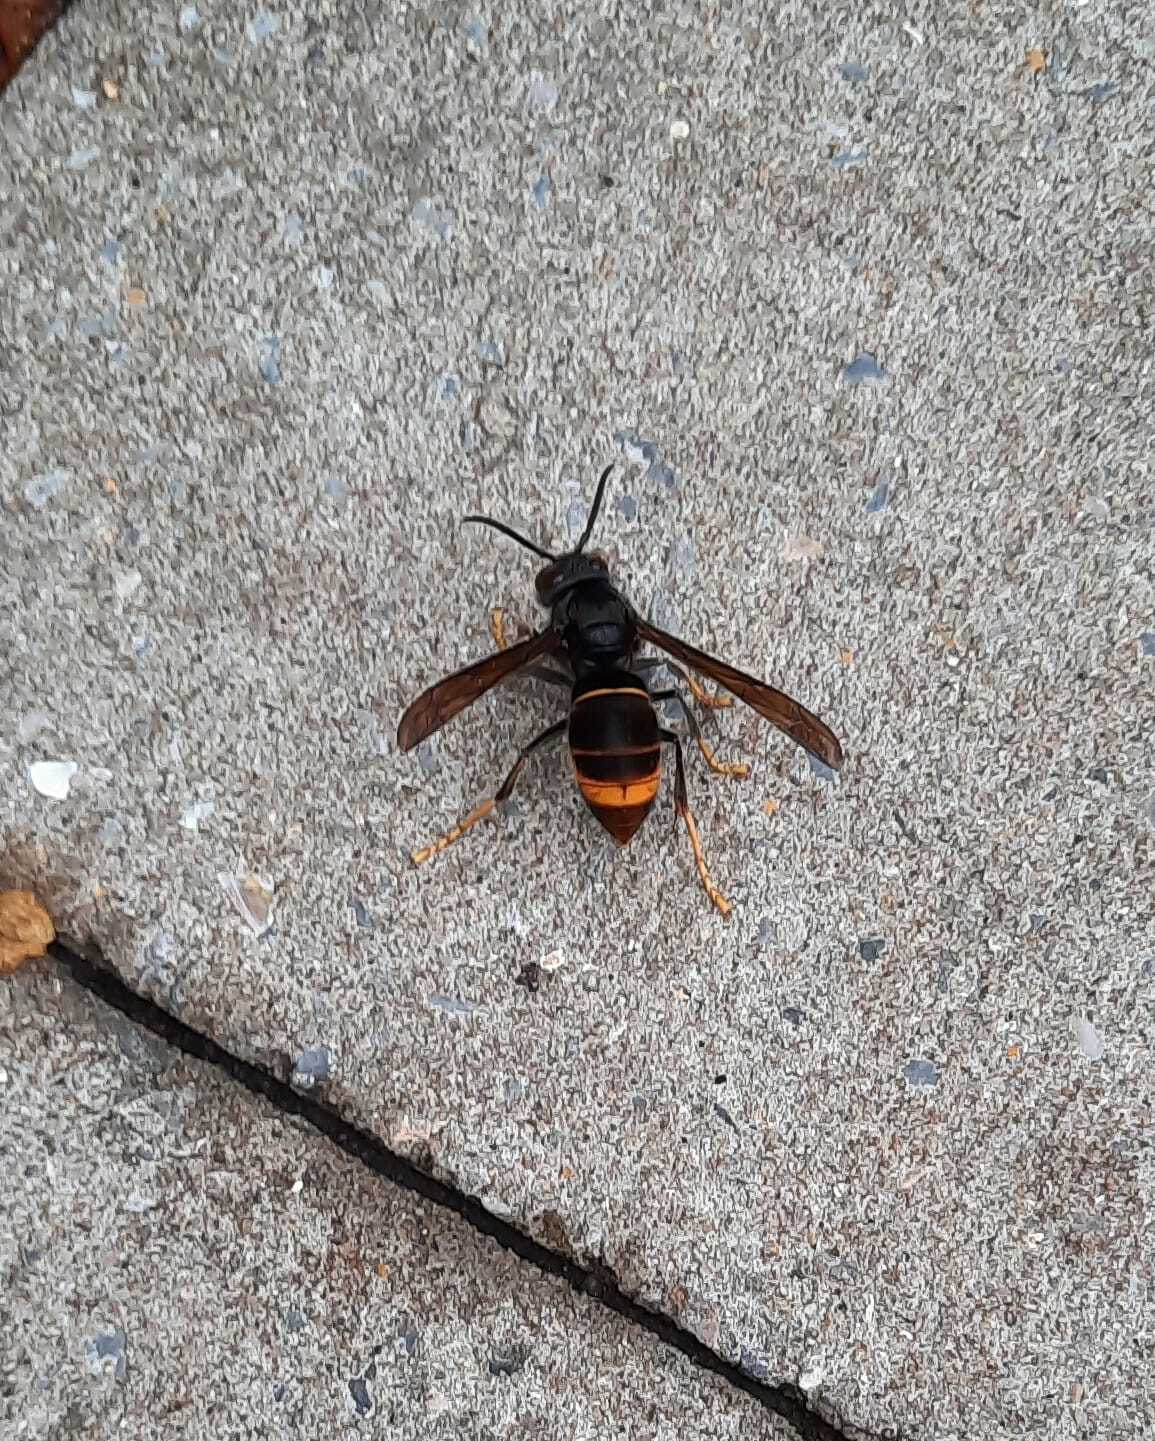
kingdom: Animalia
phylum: Arthropoda
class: Insecta
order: Hymenoptera
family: Vespidae
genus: Vespa
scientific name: Vespa velutina
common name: Asian hornet
